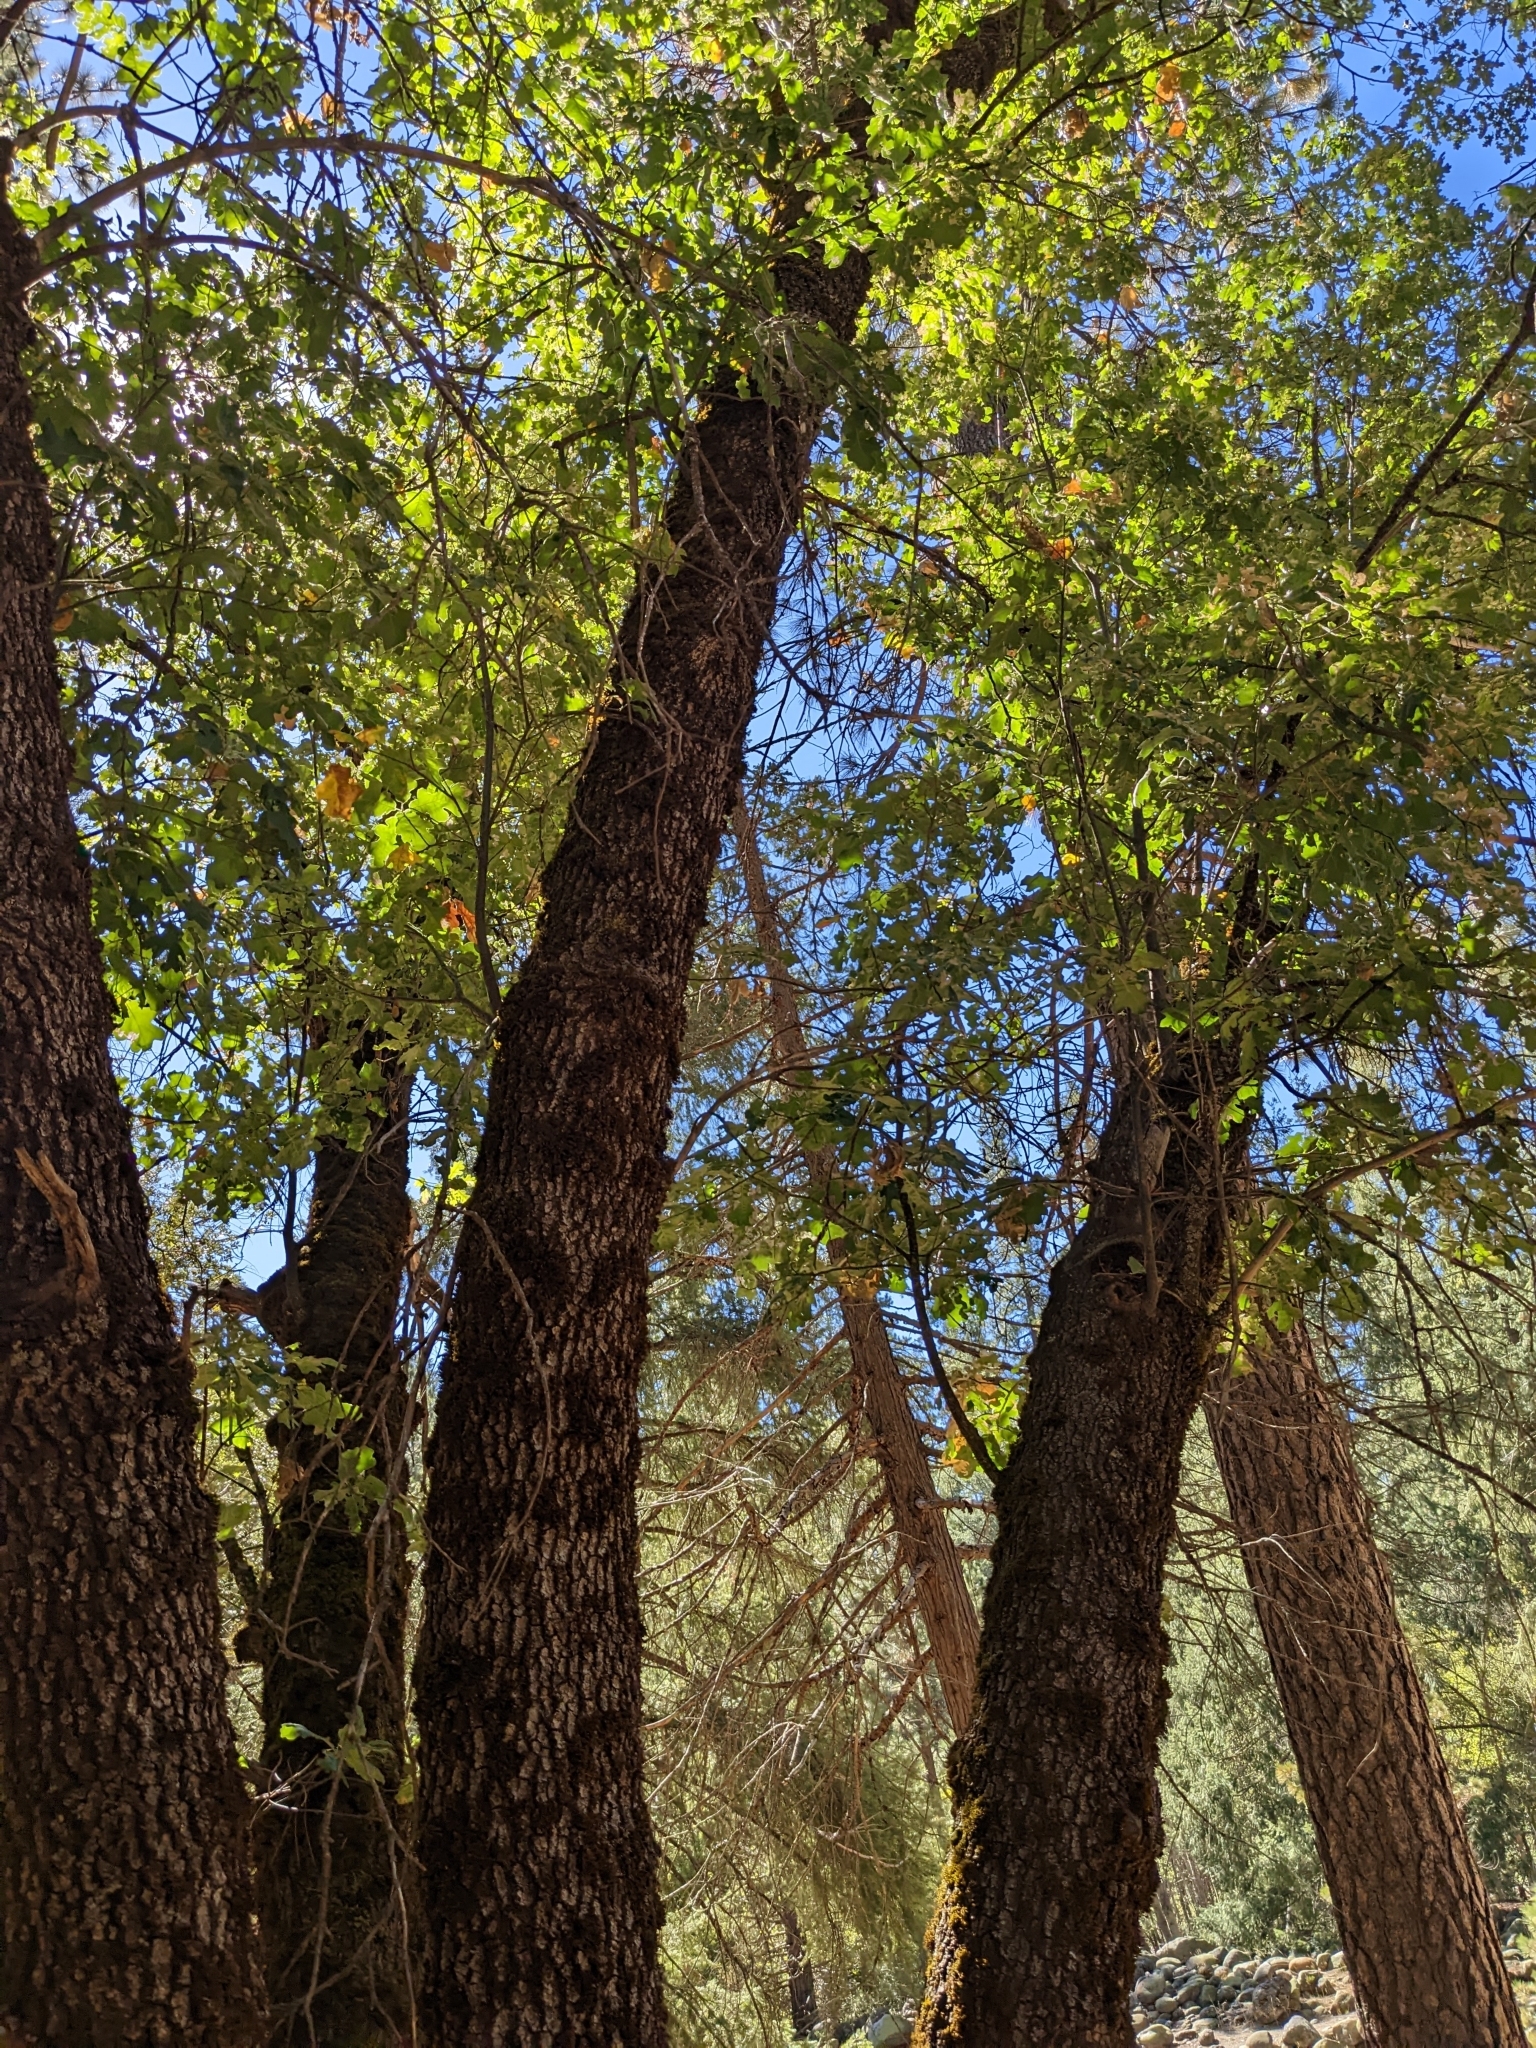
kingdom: Plantae
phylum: Tracheophyta
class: Magnoliopsida
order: Fagales
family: Fagaceae
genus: Quercus
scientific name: Quercus kelloggii
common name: California black oak
